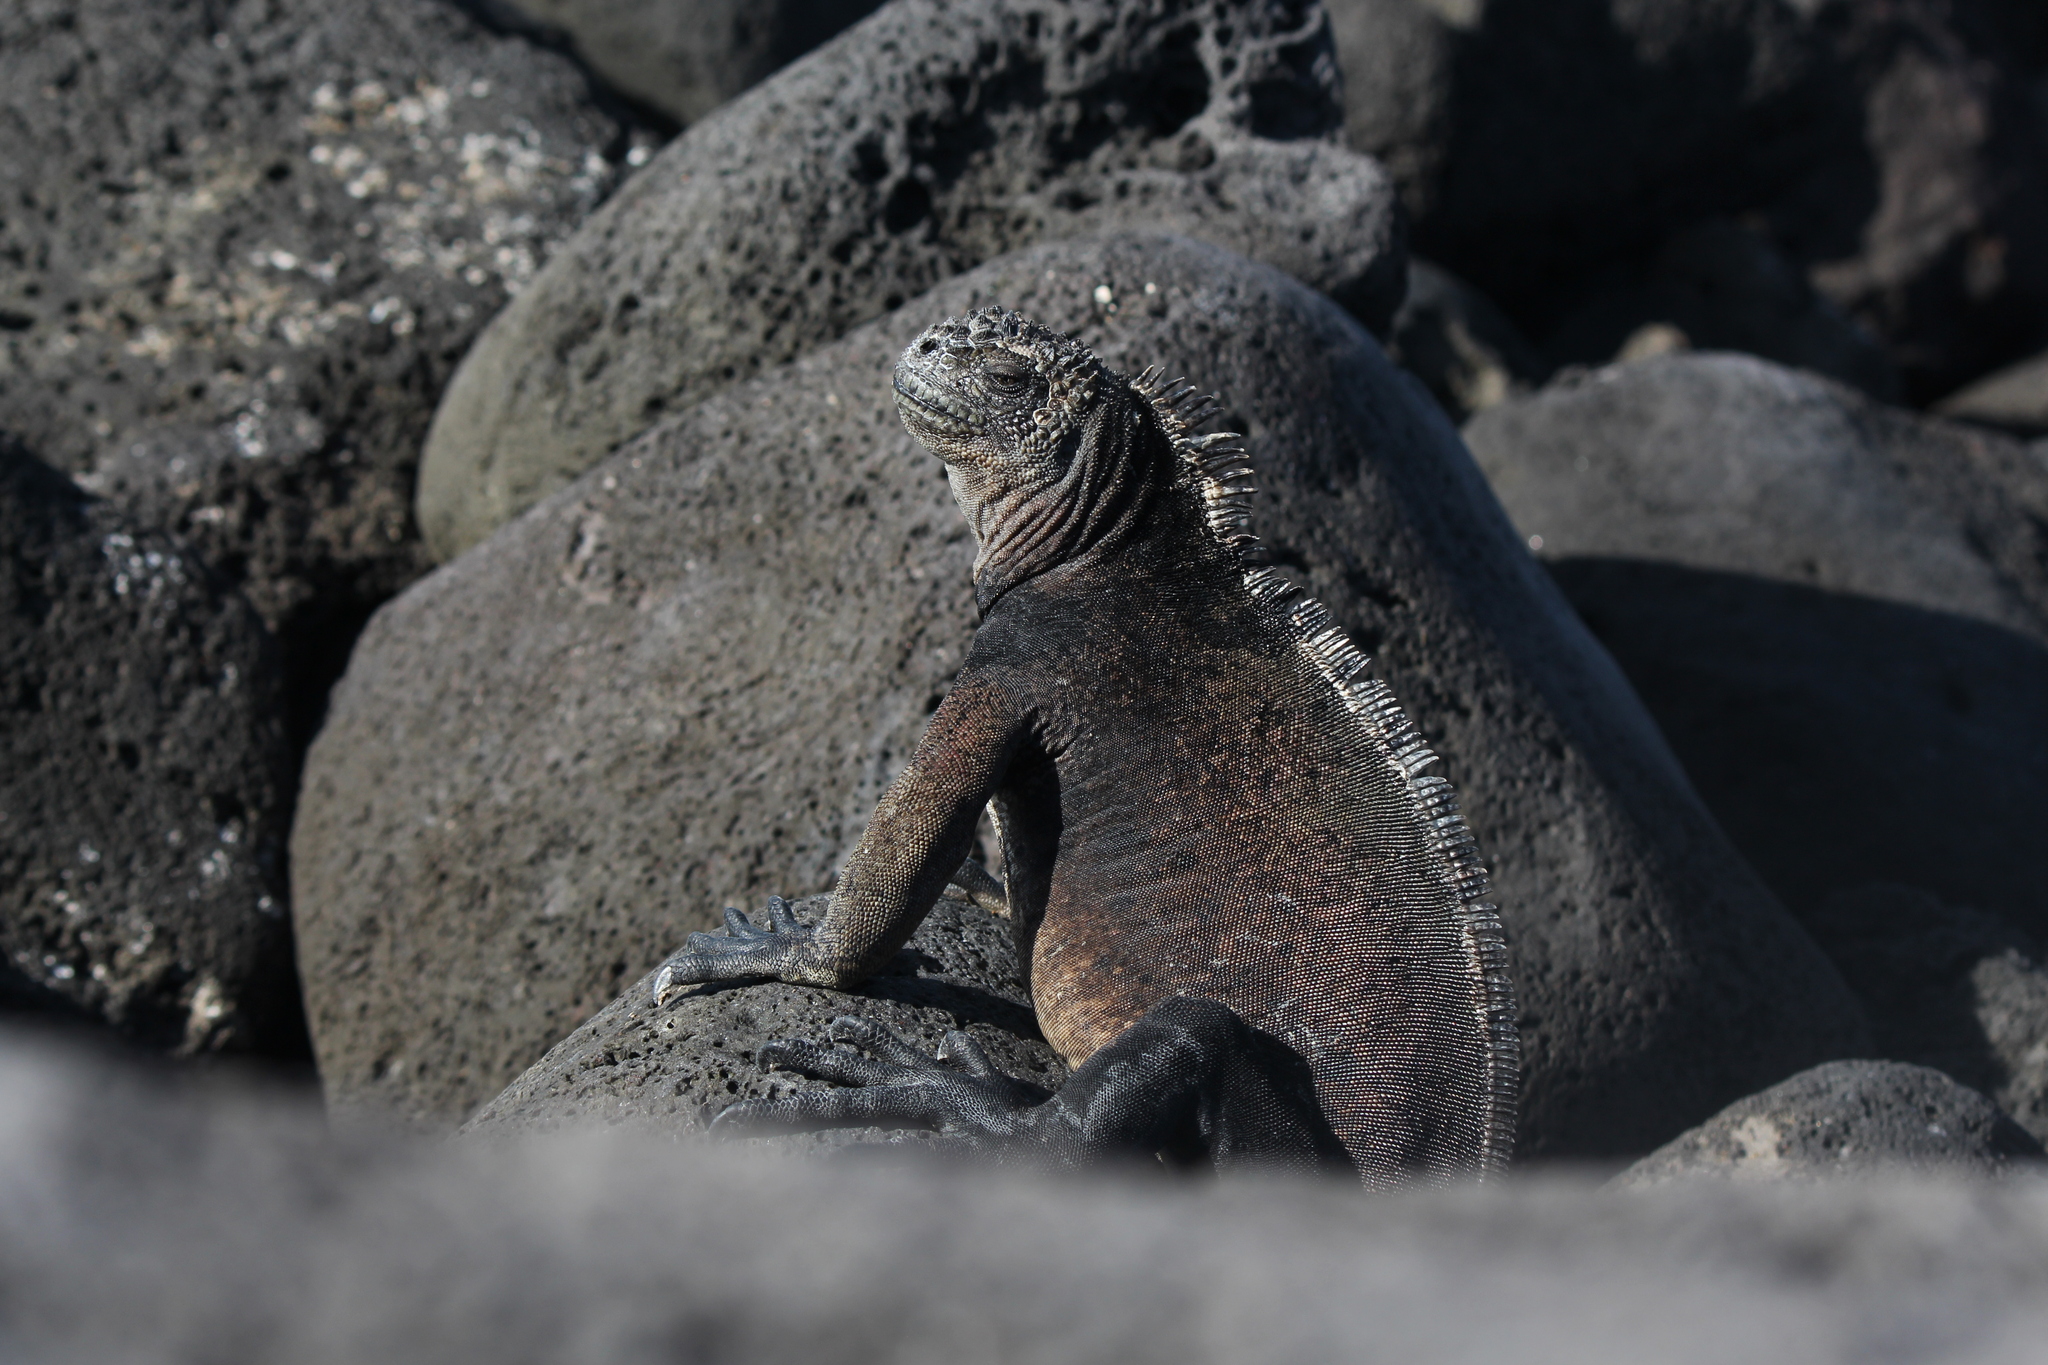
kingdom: Animalia
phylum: Chordata
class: Squamata
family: Iguanidae
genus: Amblyrhynchus
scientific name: Amblyrhynchus cristatus
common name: Marine iguana
